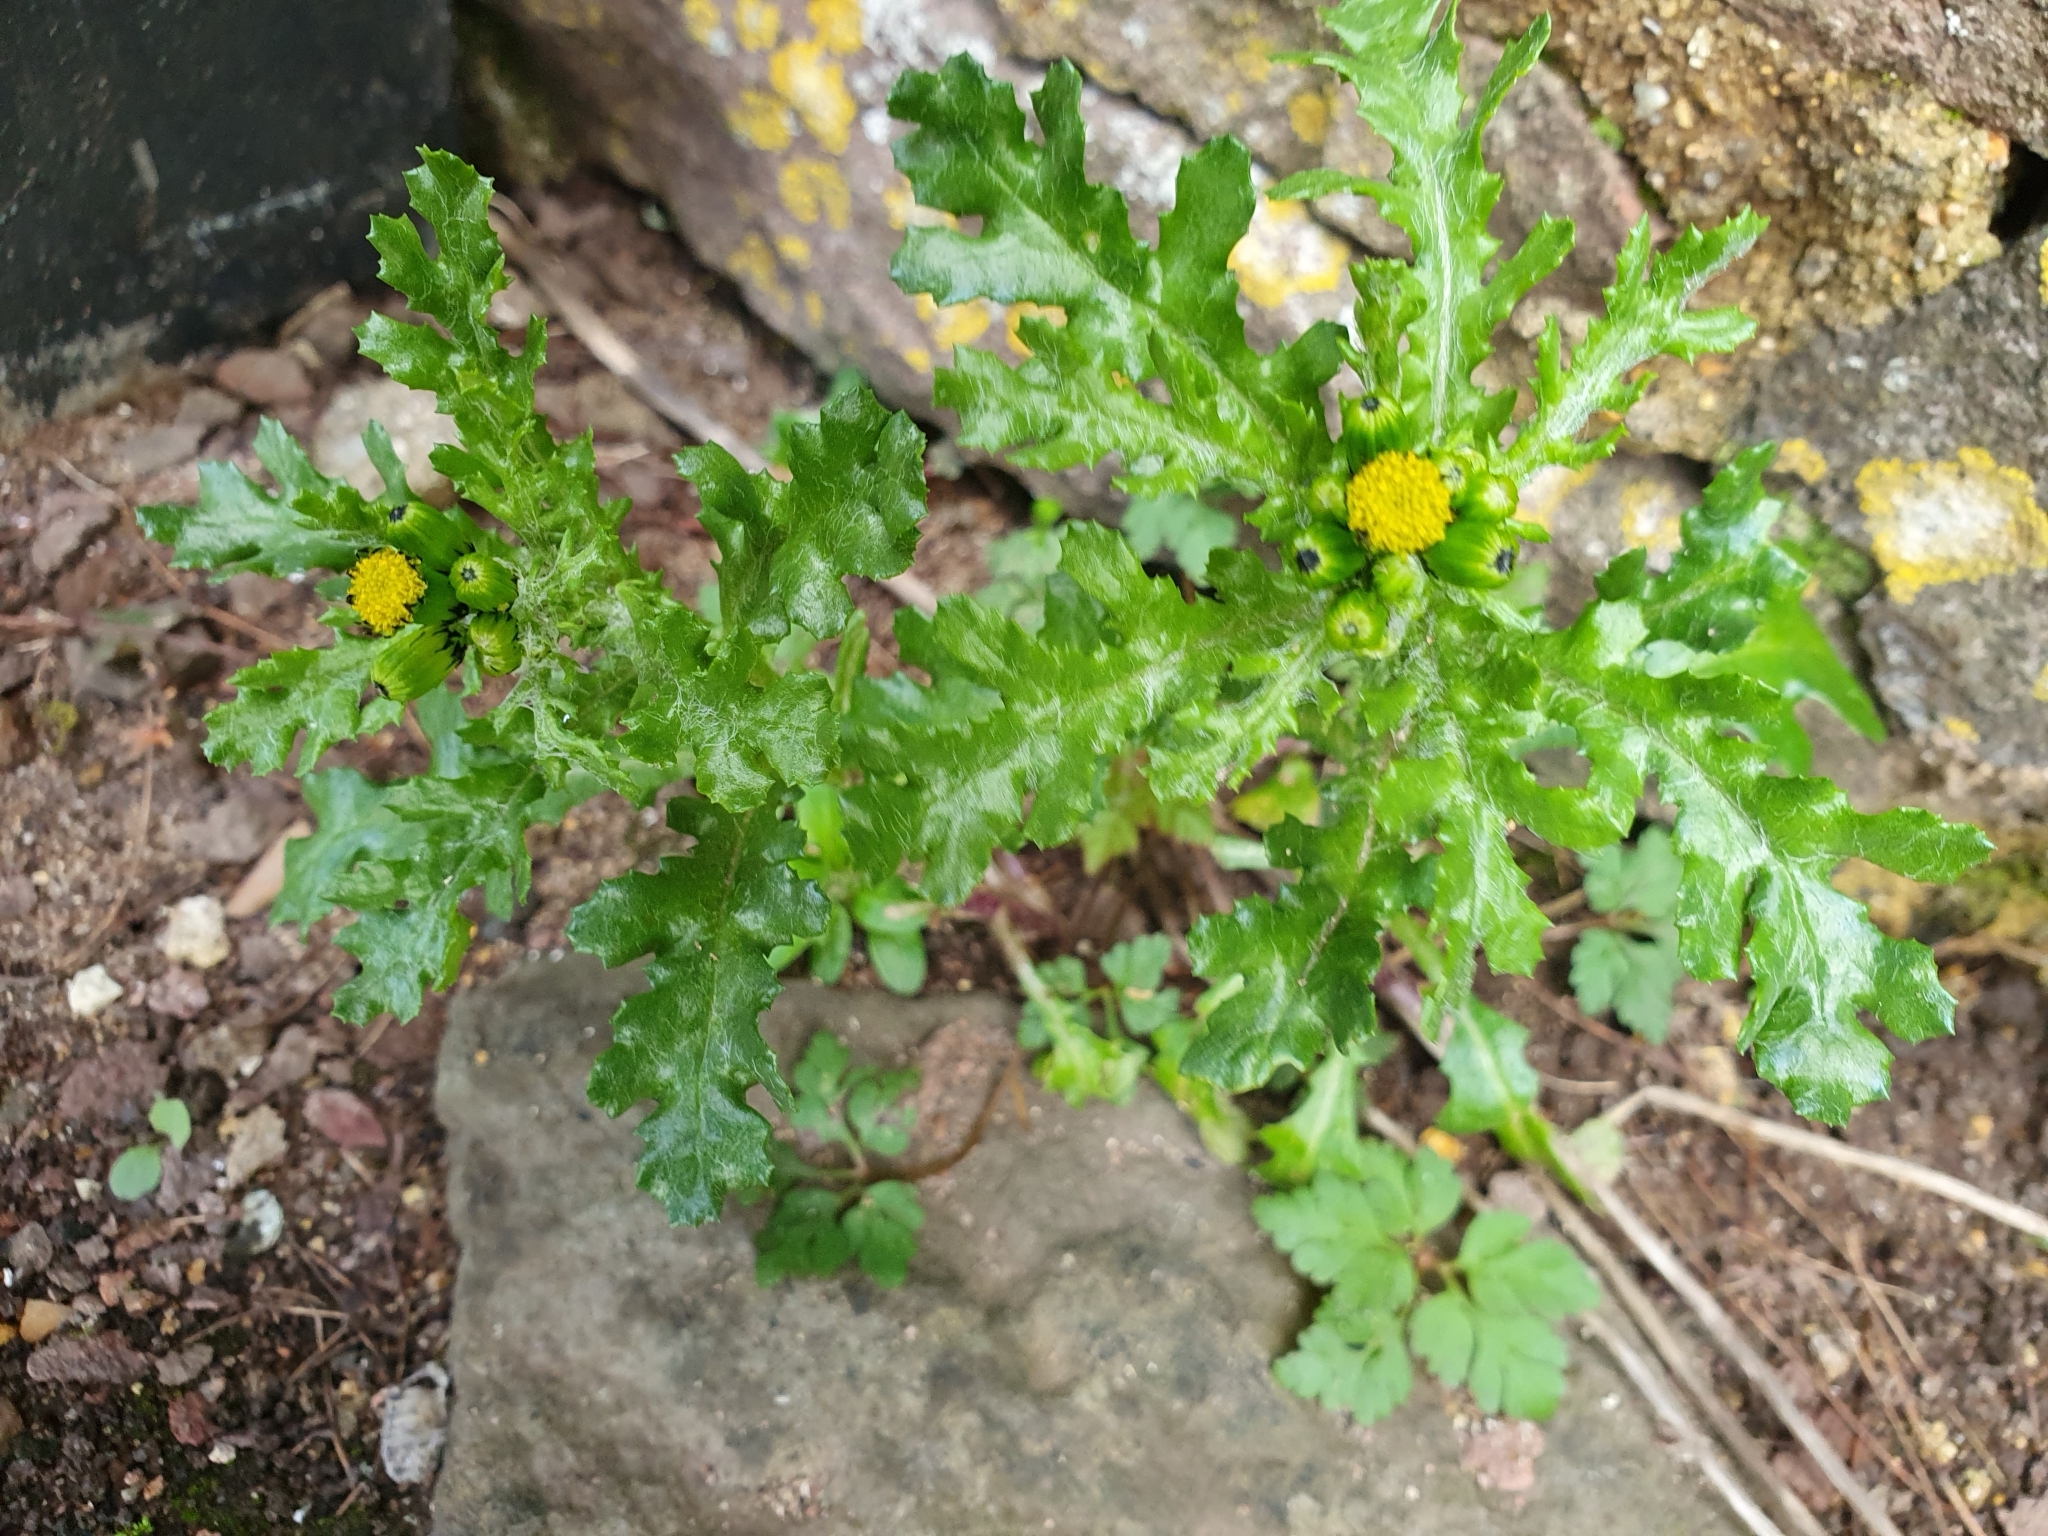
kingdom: Plantae
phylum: Tracheophyta
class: Magnoliopsida
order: Asterales
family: Asteraceae
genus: Senecio
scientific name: Senecio vulgaris
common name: Old-man-in-the-spring
